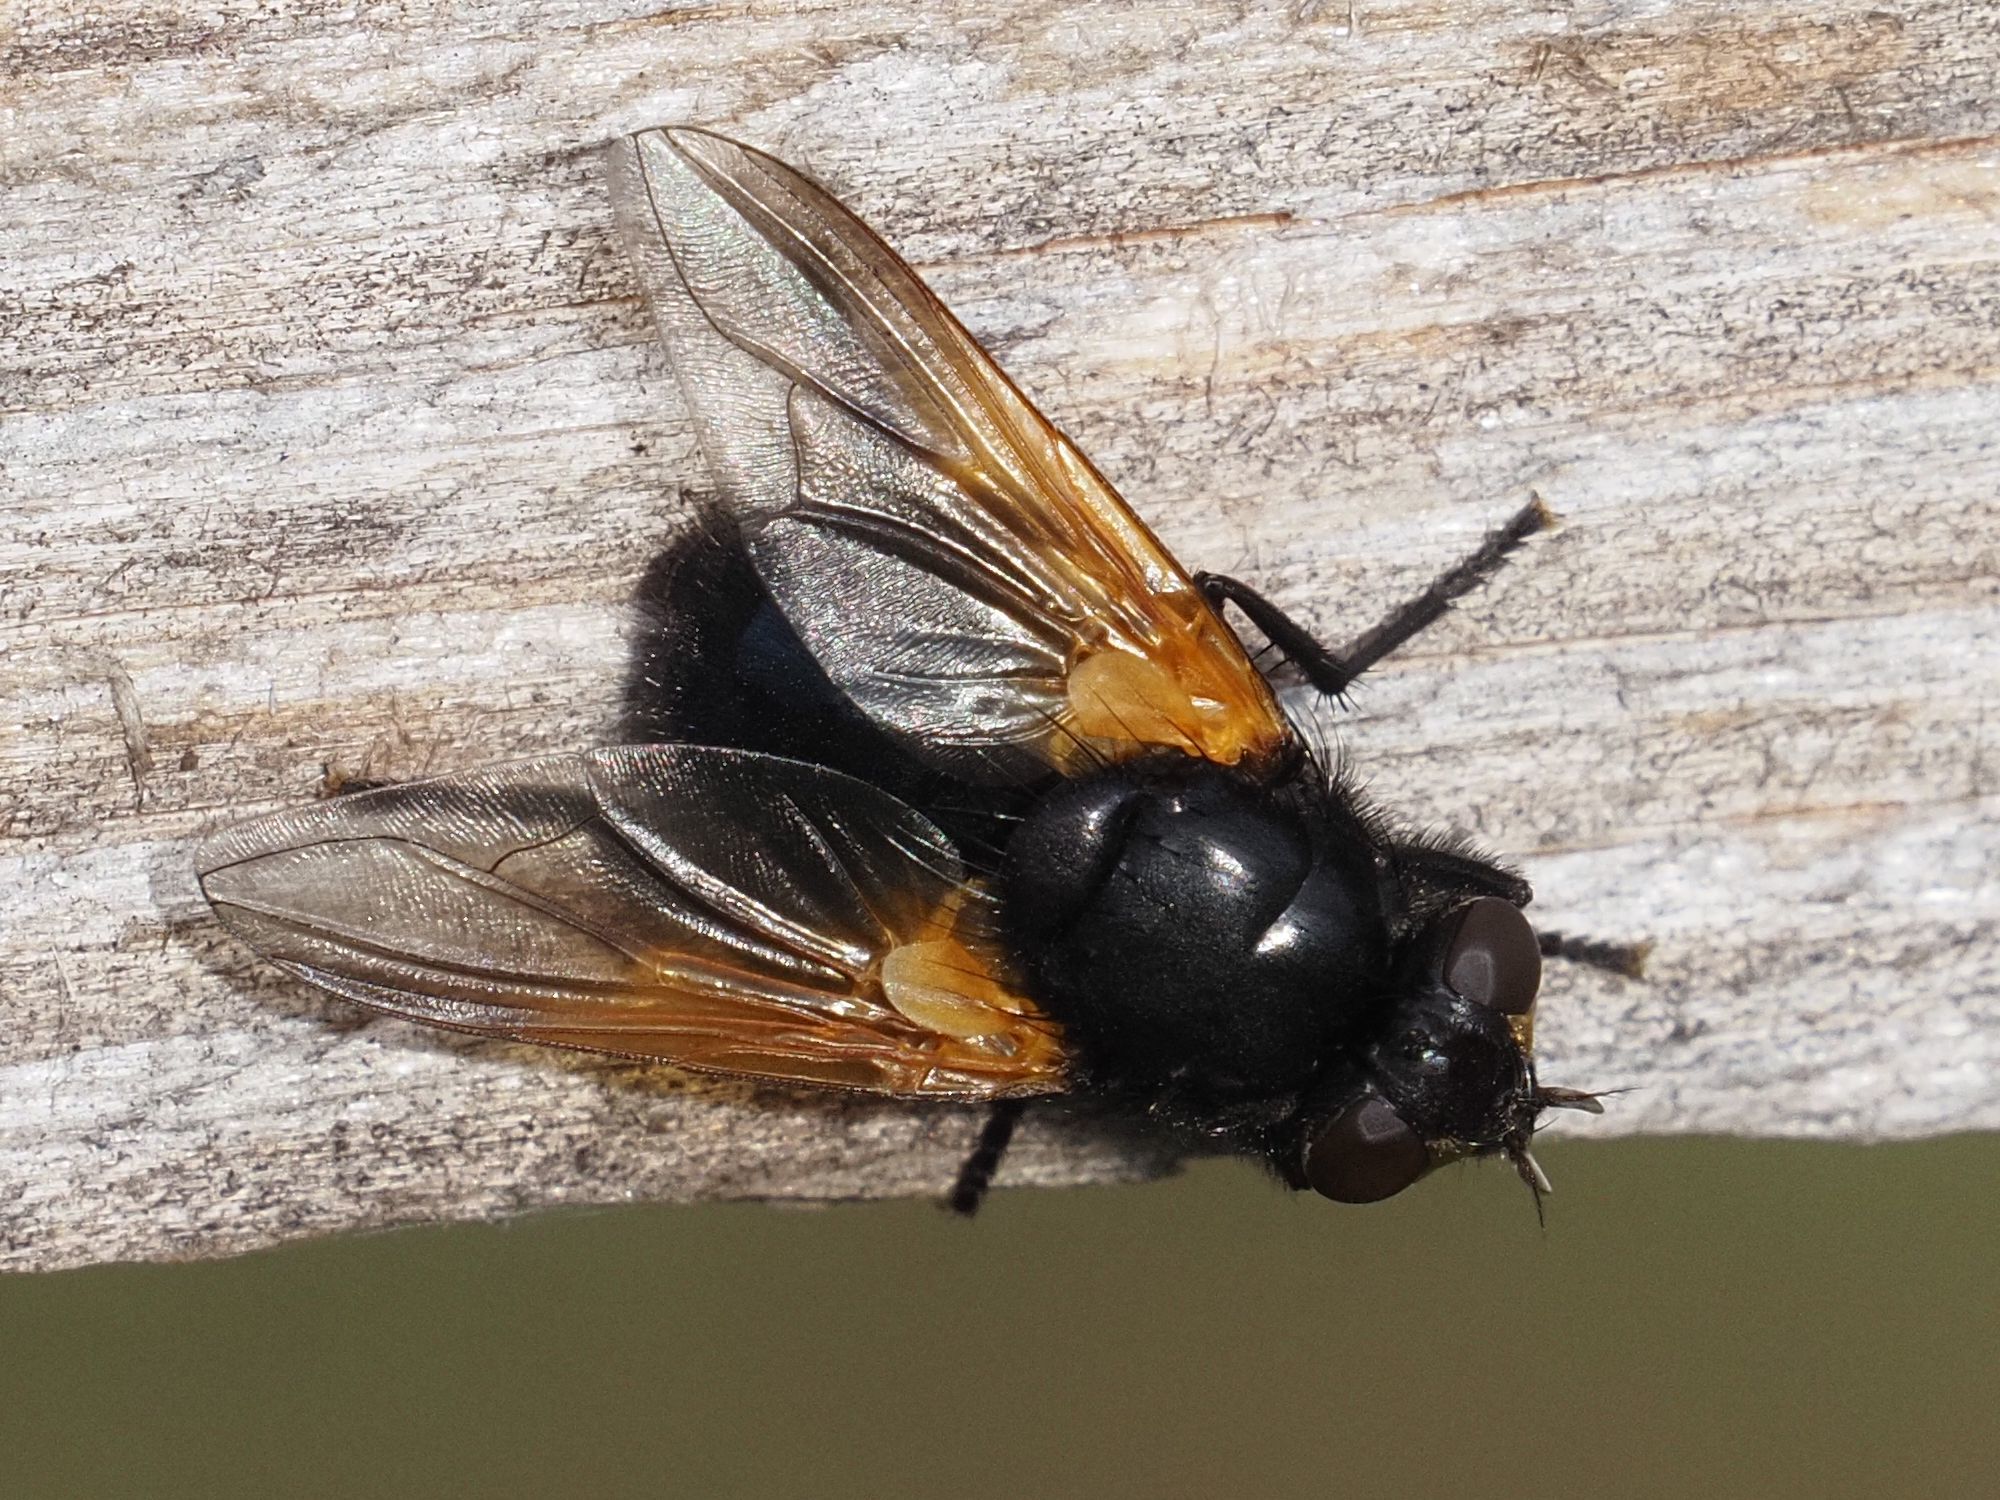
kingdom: Animalia
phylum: Arthropoda
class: Insecta
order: Diptera
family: Muscidae
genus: Mesembrina
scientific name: Mesembrina meridiana
